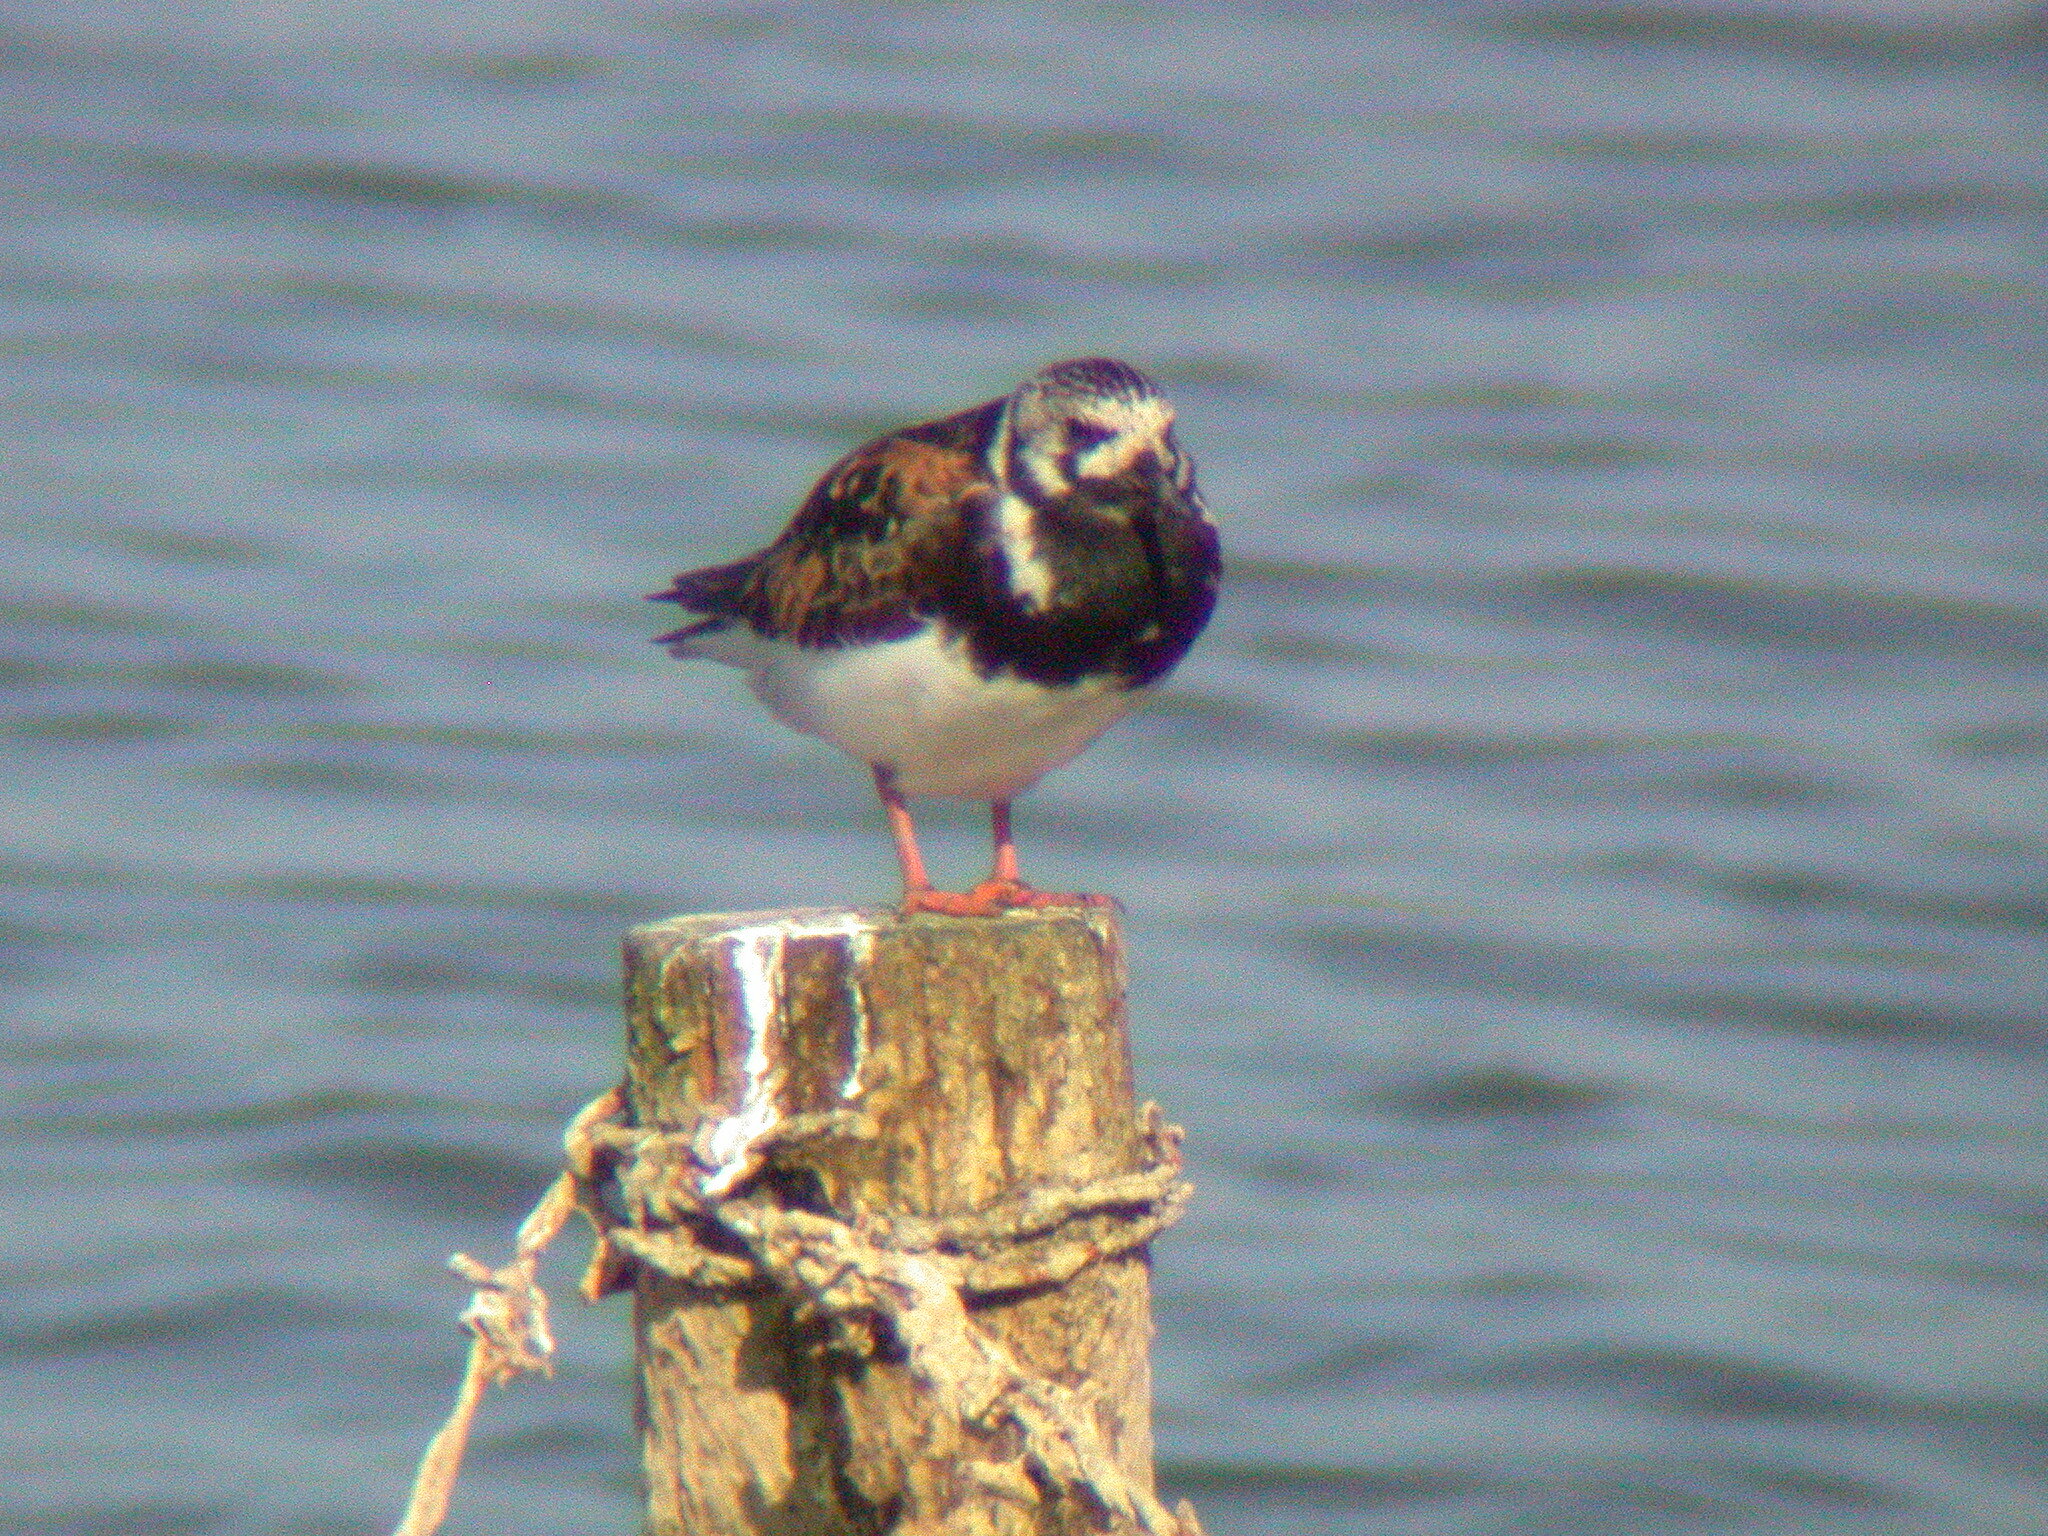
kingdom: Animalia
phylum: Chordata
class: Aves
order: Charadriiformes
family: Scolopacidae
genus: Arenaria
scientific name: Arenaria interpres
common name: Ruddy turnstone
